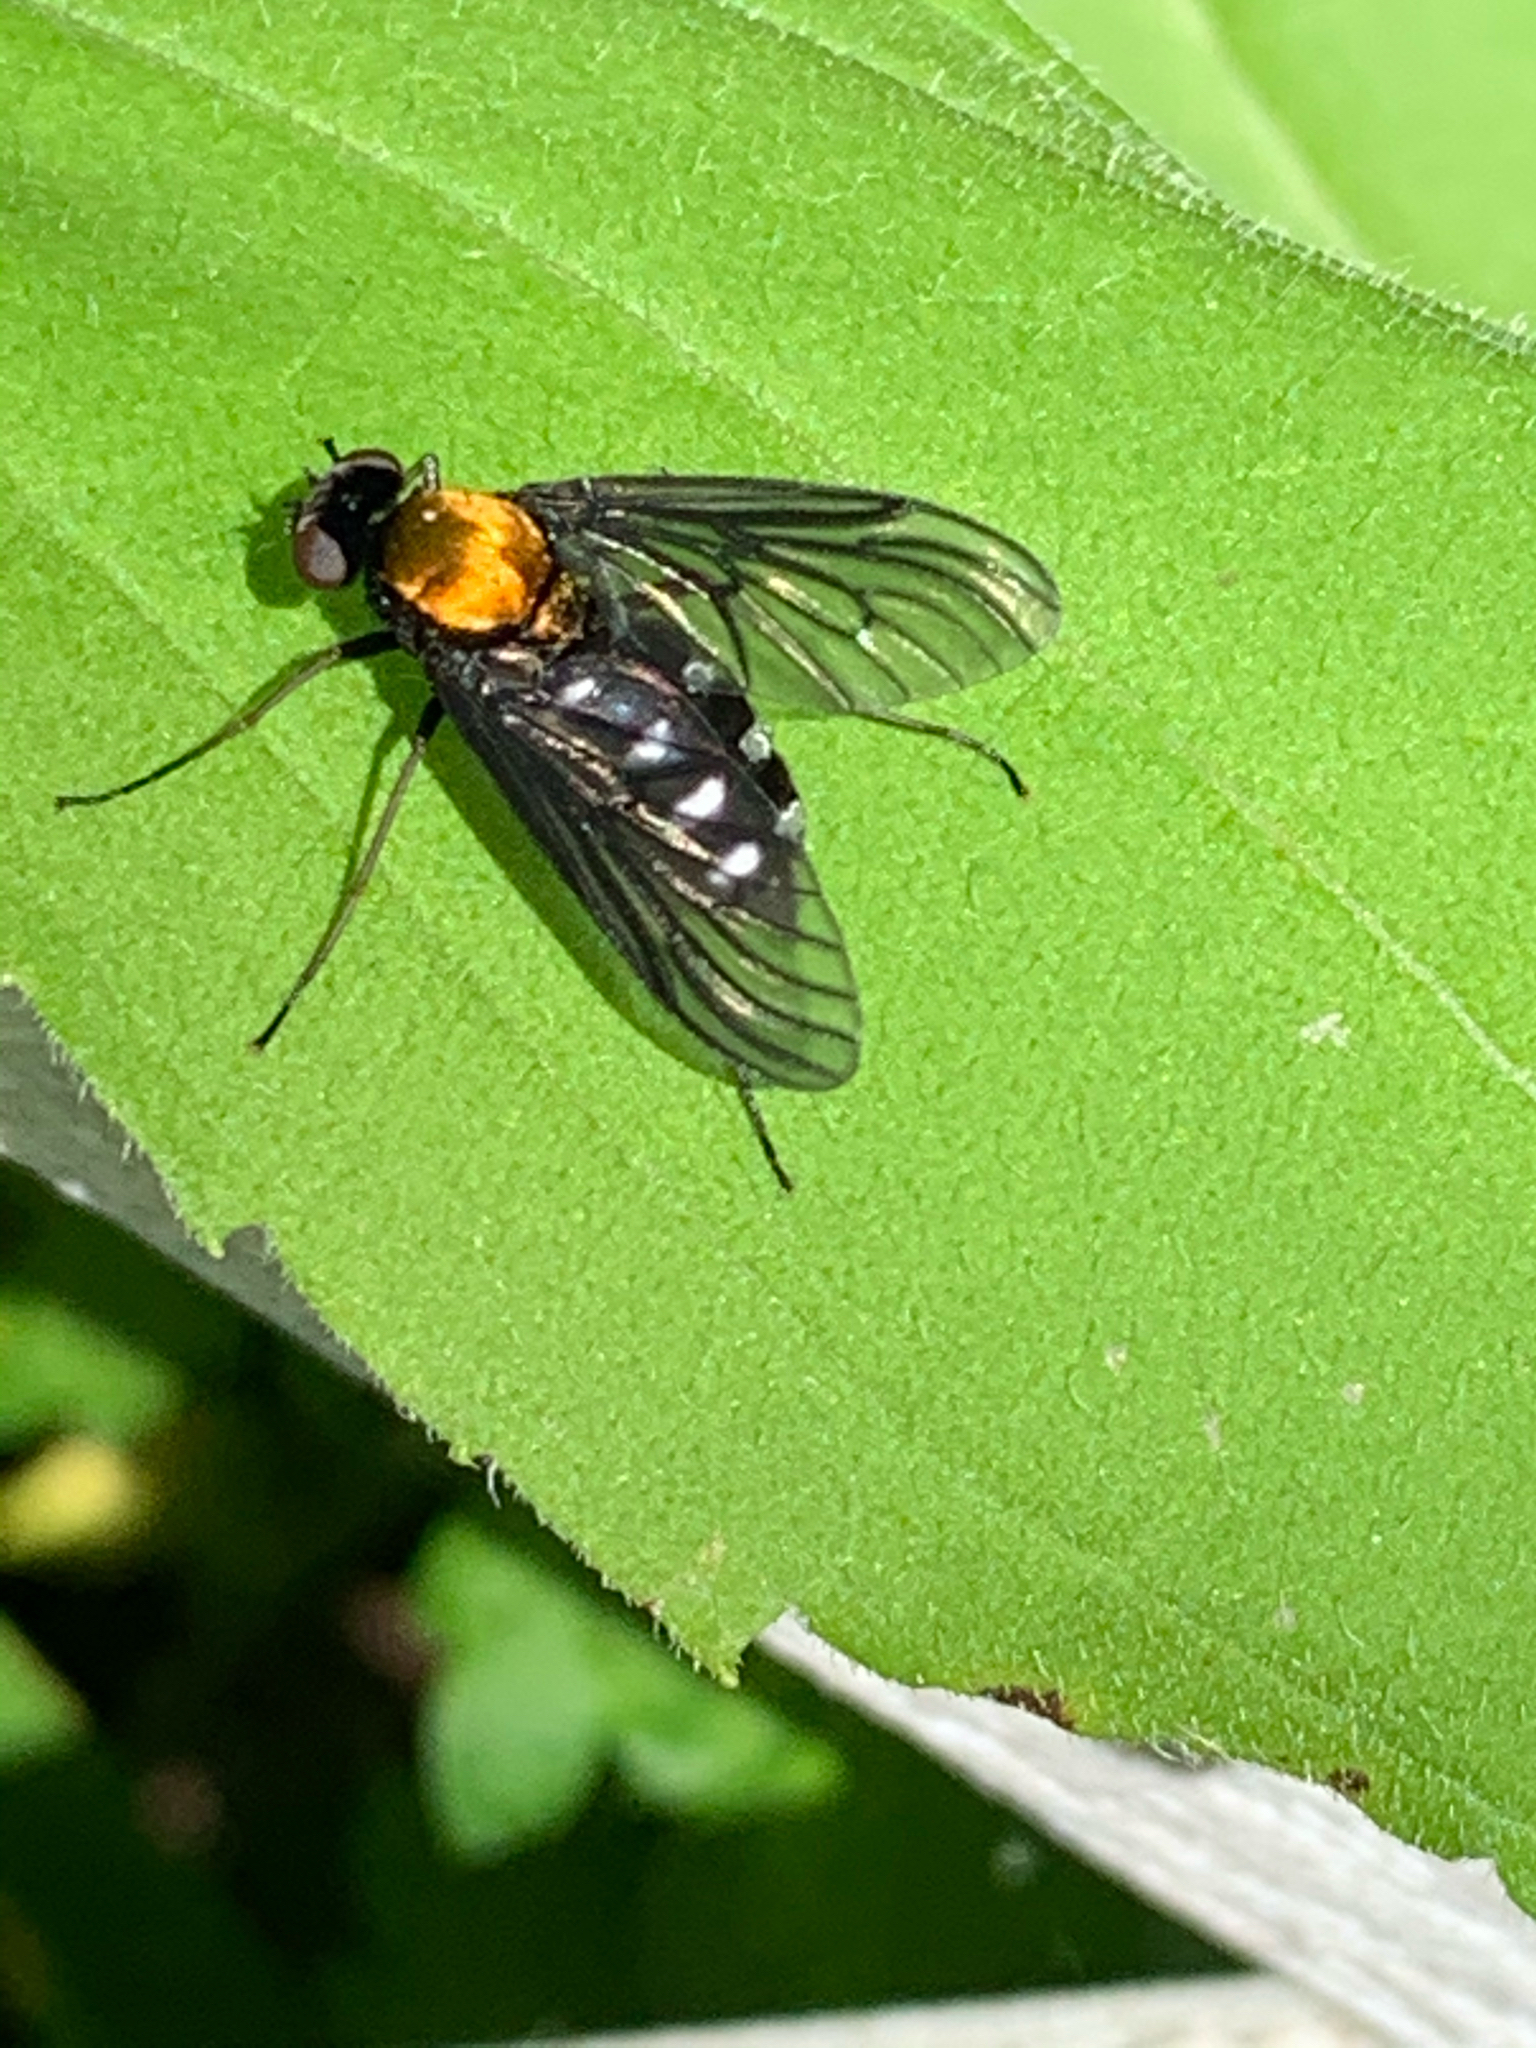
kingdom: Animalia
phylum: Arthropoda
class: Insecta
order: Diptera
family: Rhagionidae
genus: Chrysopilus
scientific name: Chrysopilus thoracicus
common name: Golden-backed snipe fly
